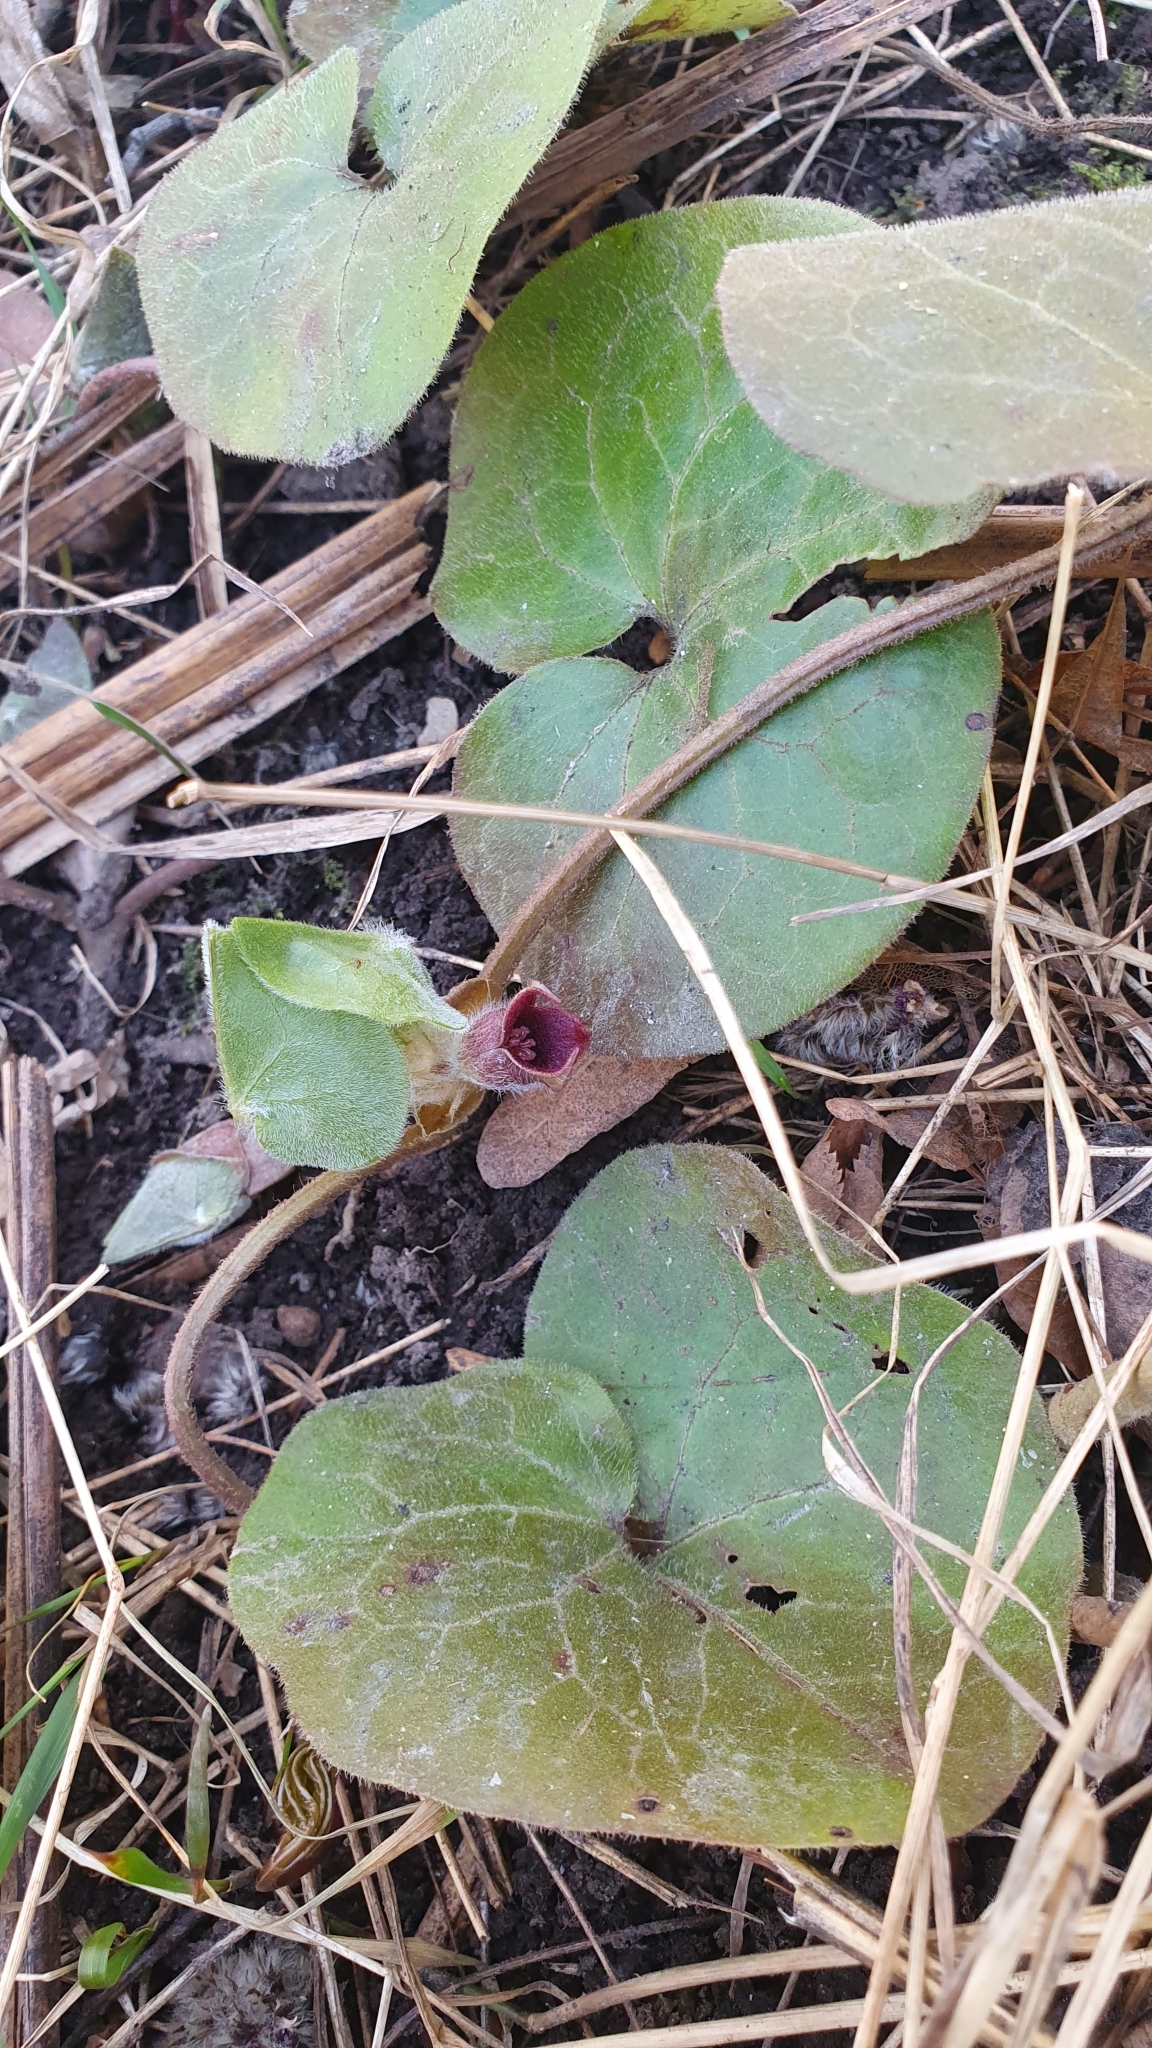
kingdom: Plantae
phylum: Tracheophyta
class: Magnoliopsida
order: Piperales
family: Aristolochiaceae
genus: Asarum
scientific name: Asarum europaeum
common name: Asarabacca
